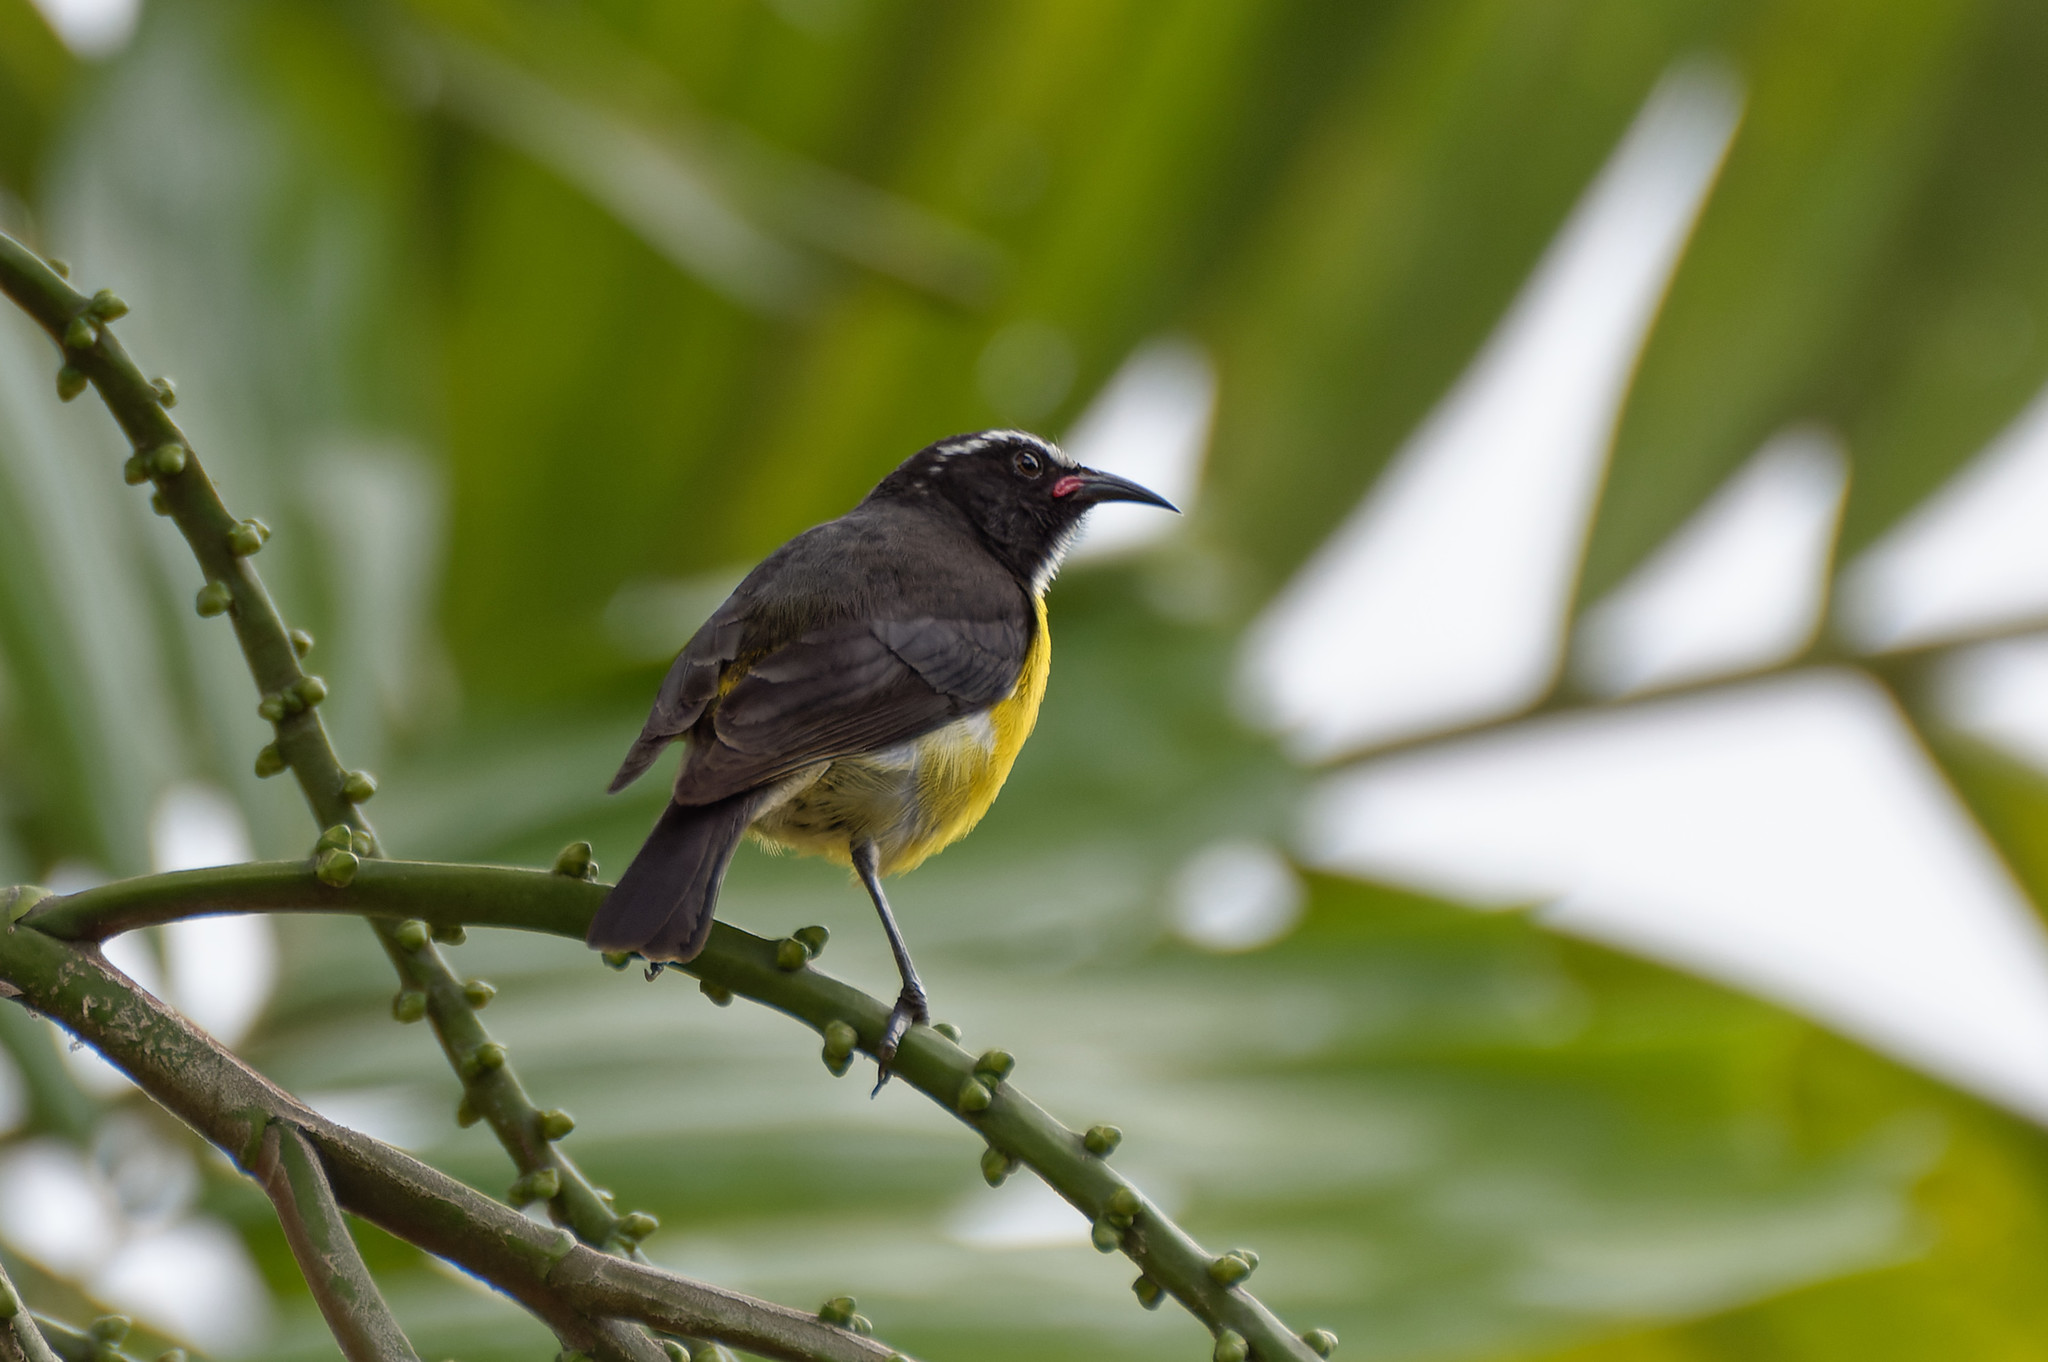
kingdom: Animalia
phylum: Chordata
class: Aves
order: Passeriformes
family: Thraupidae
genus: Coereba
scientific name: Coereba flaveola
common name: Bananaquit
